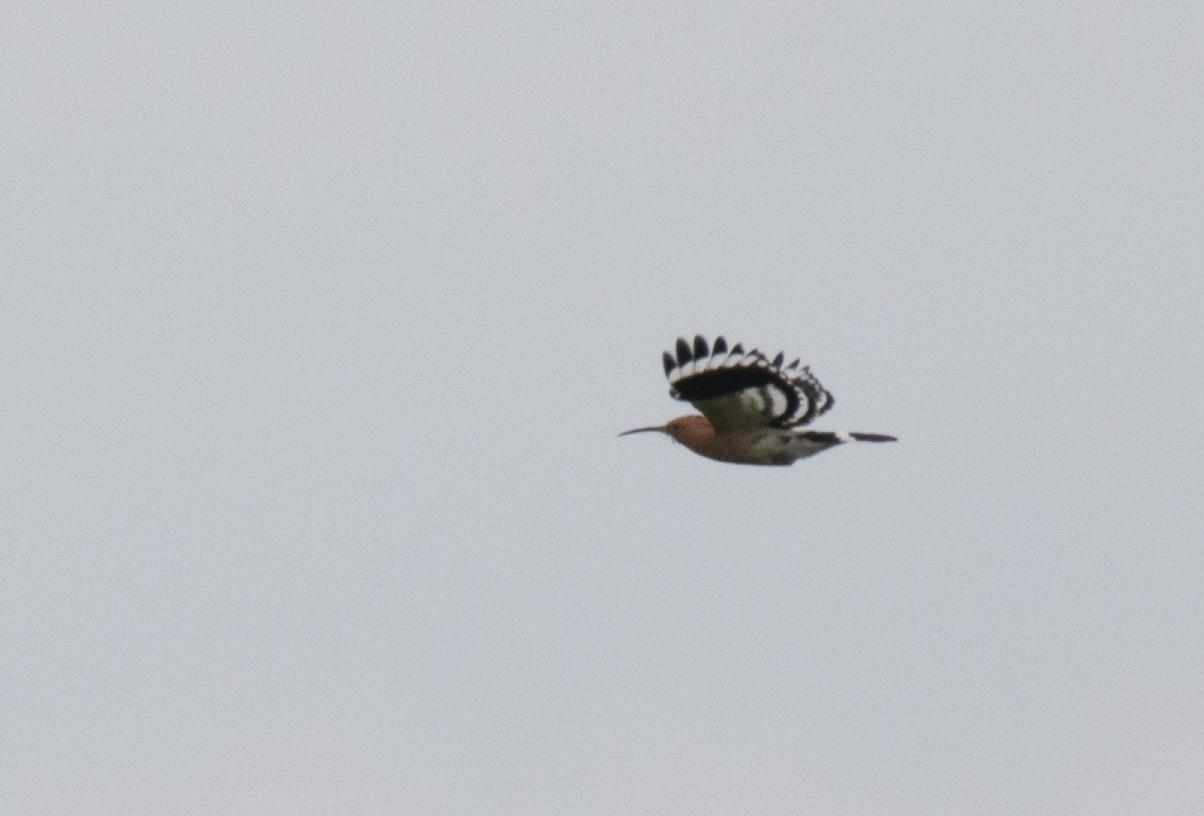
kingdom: Animalia
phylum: Chordata
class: Aves
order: Bucerotiformes
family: Upupidae
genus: Upupa
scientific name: Upupa epops
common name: Eurasian hoopoe
